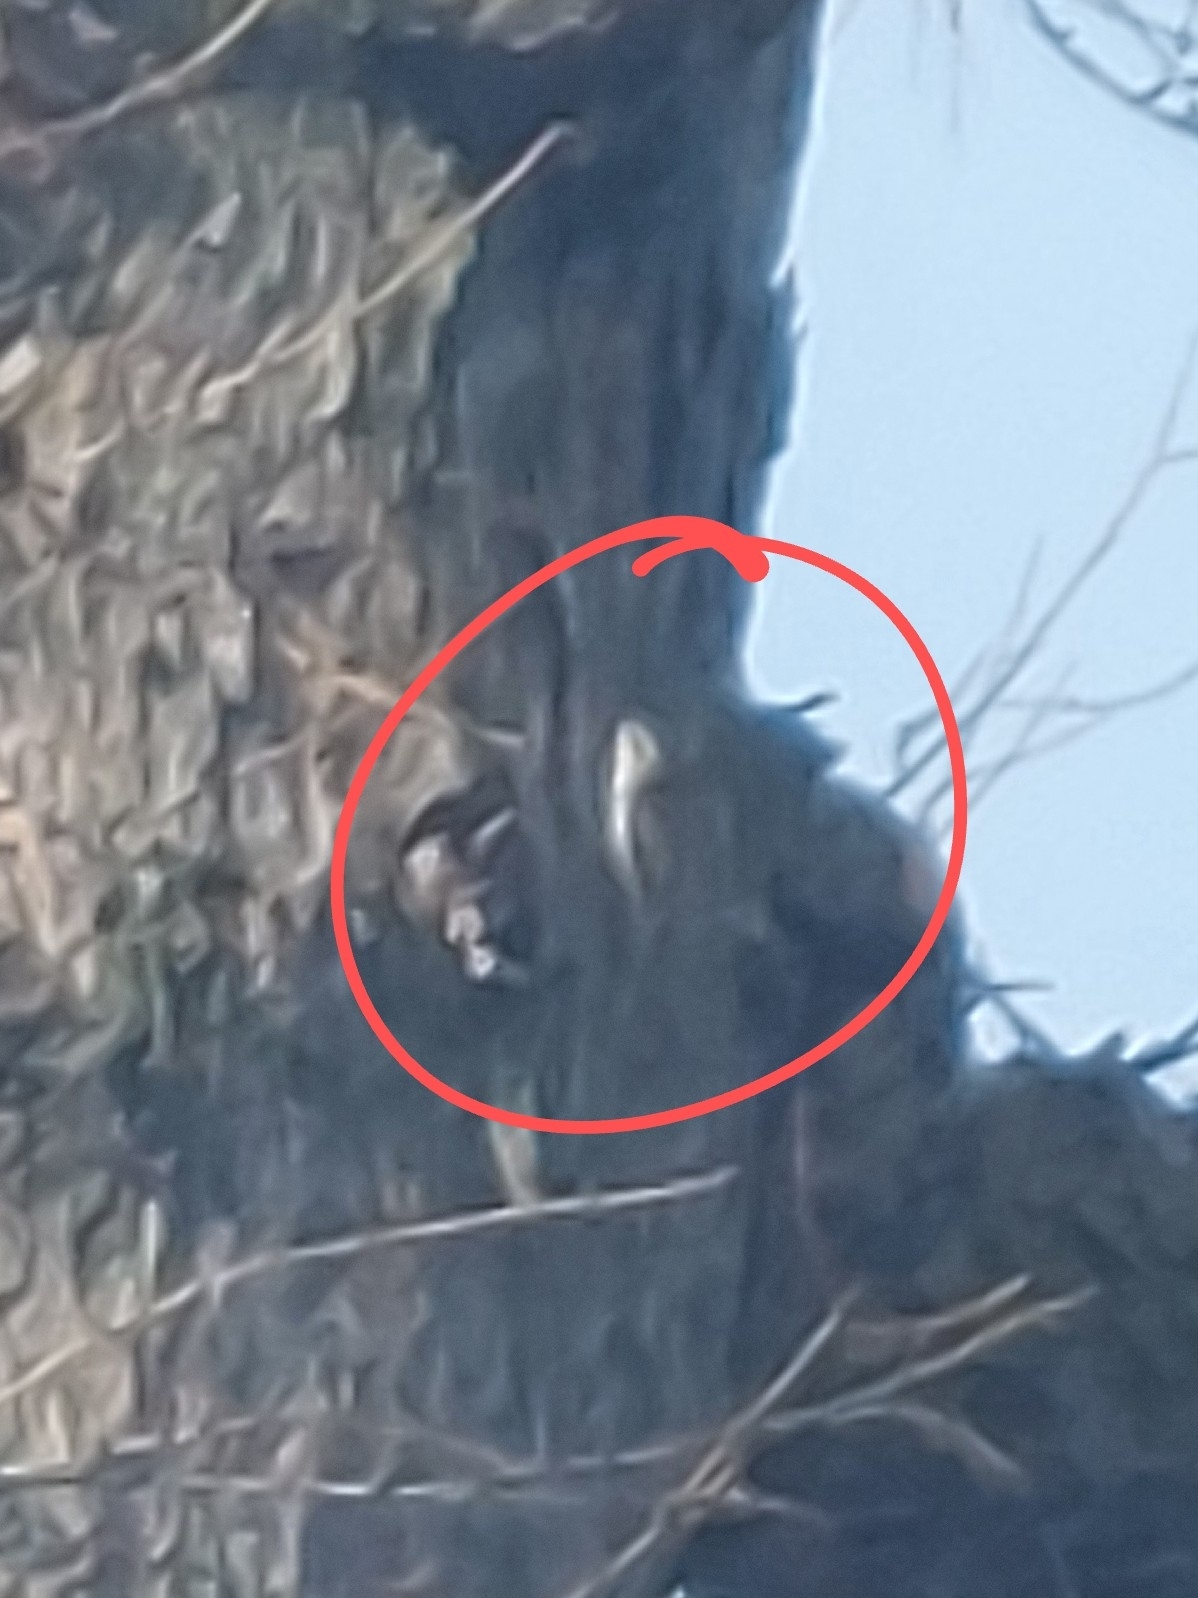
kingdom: Animalia
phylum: Chordata
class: Aves
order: Passeriformes
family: Certhiidae
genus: Certhia
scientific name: Certhia americana
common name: Brown creeper
